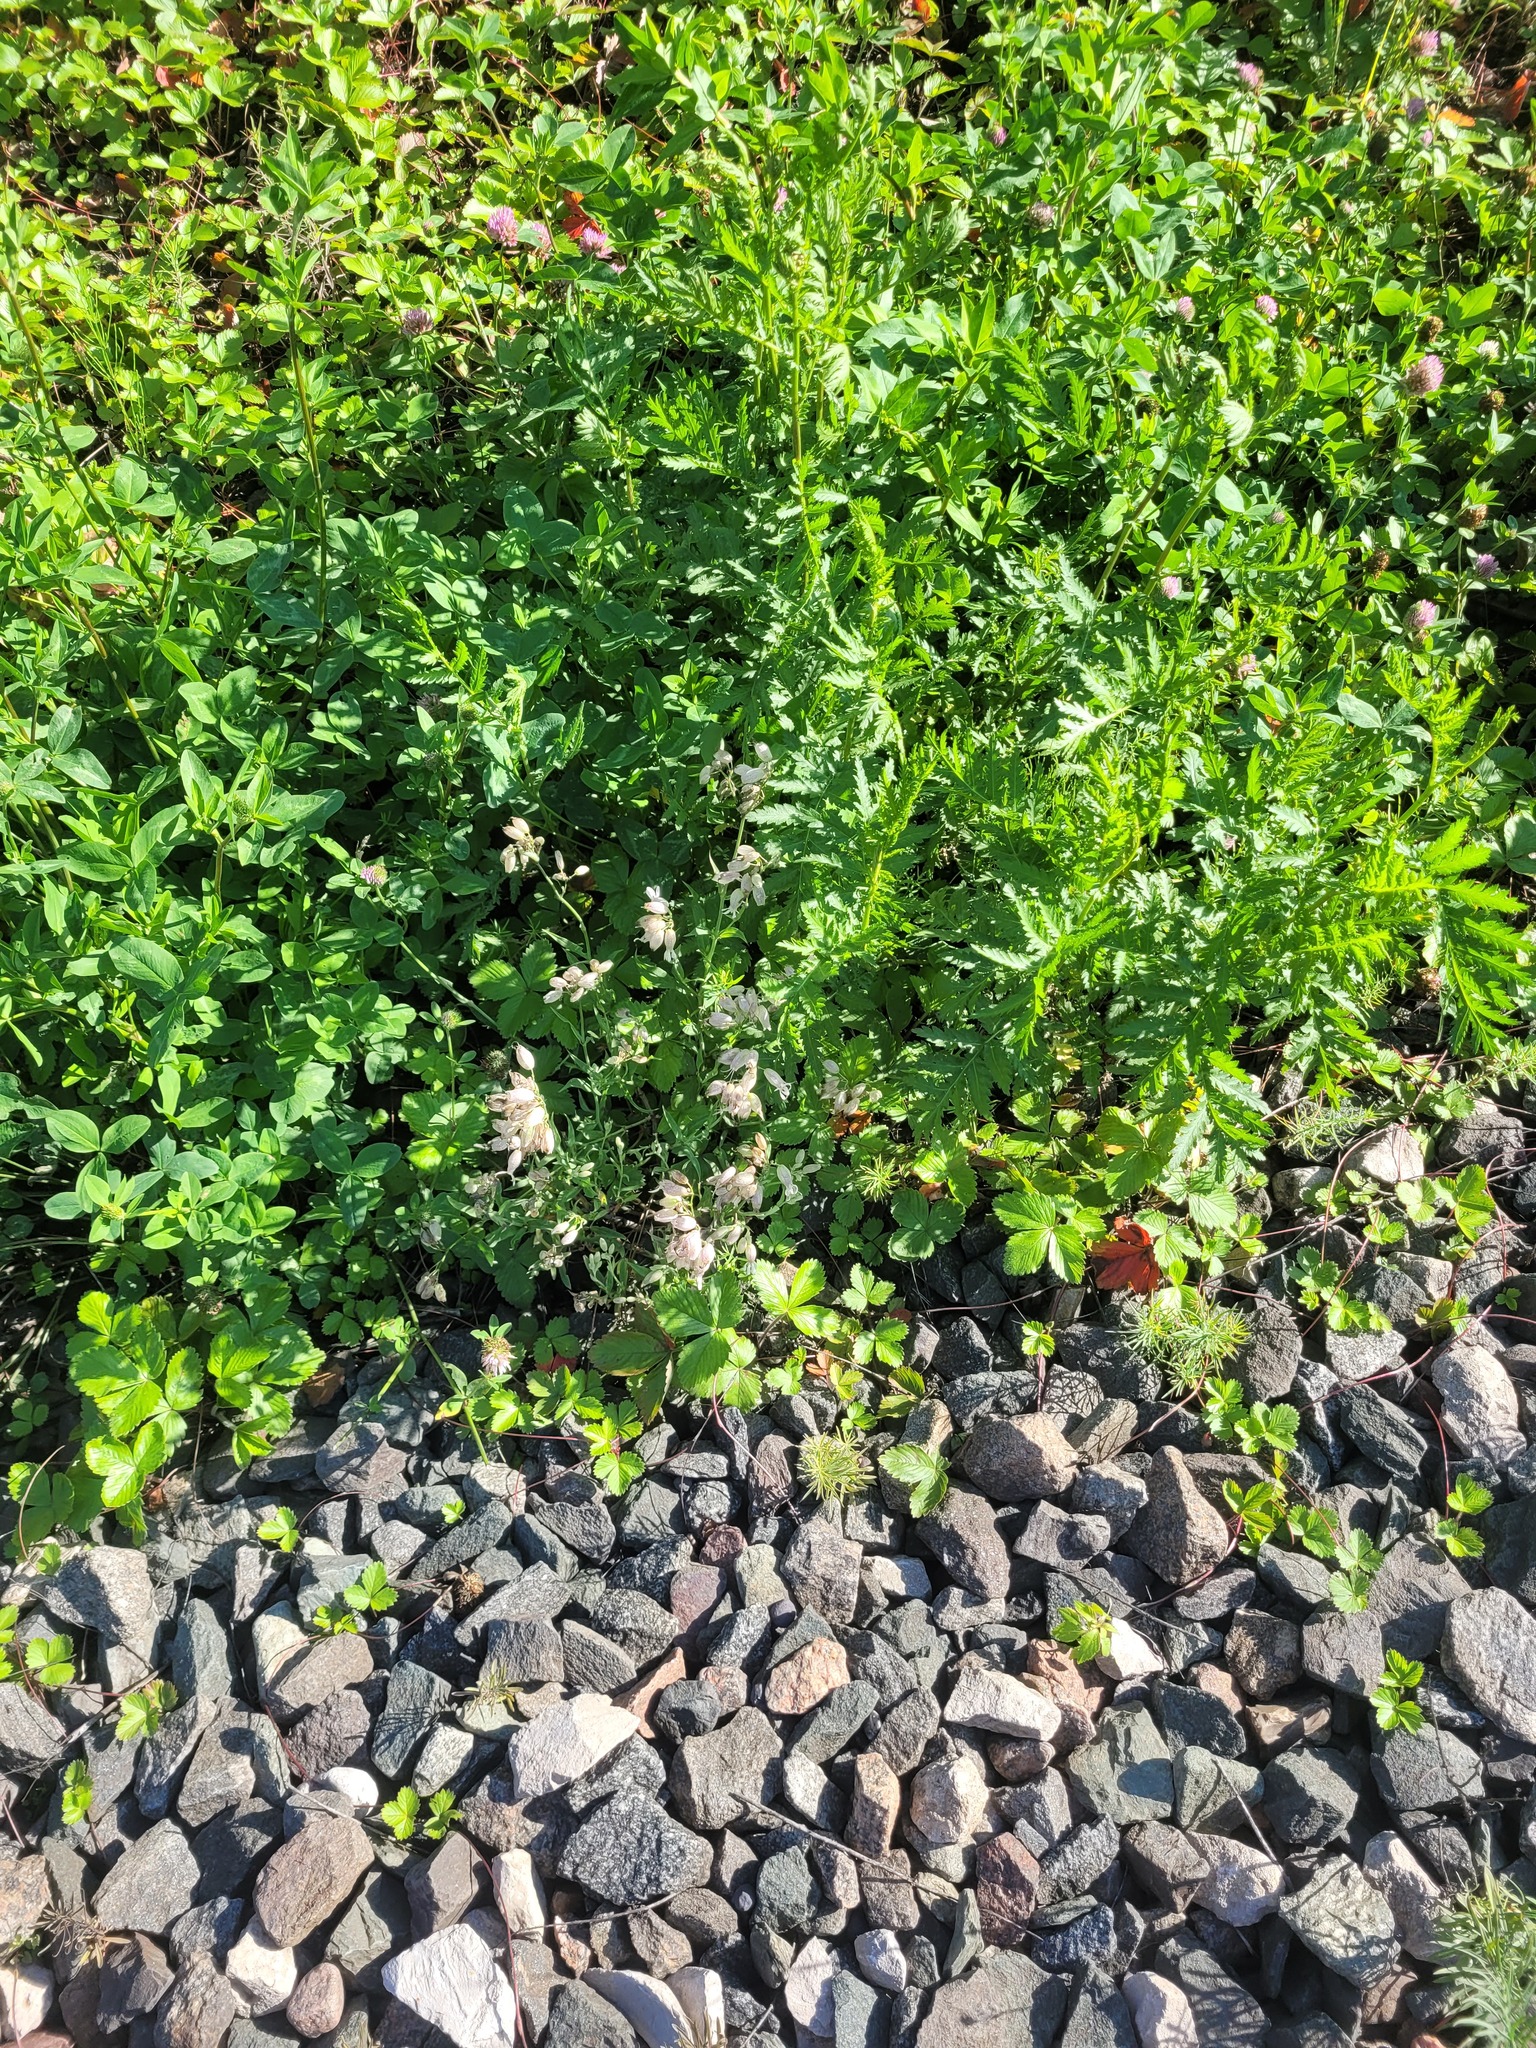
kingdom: Plantae
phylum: Tracheophyta
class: Magnoliopsida
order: Caryophyllales
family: Caryophyllaceae
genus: Silene
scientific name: Silene vulgaris
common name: Bladder campion
